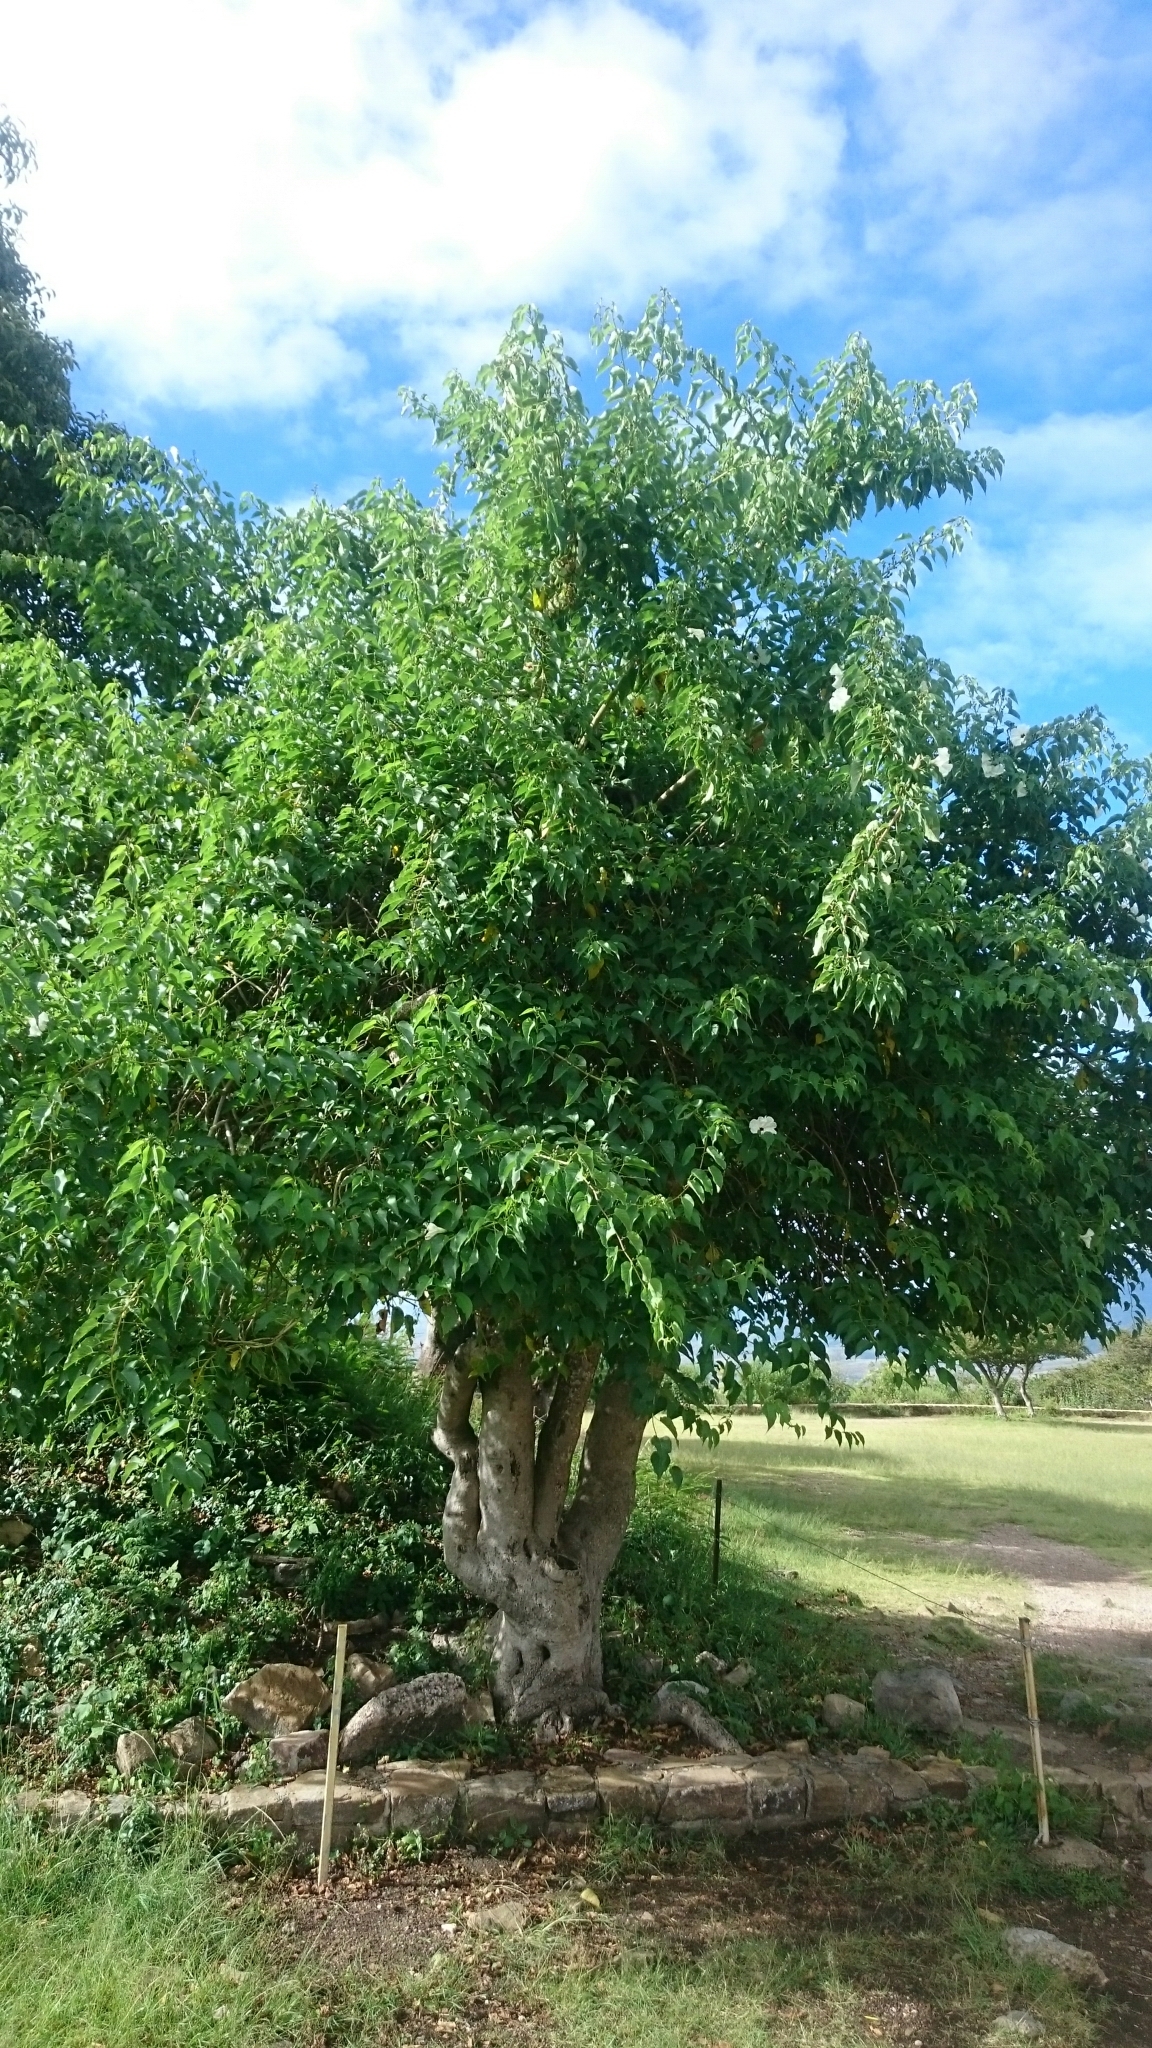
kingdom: Plantae
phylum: Tracheophyta
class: Magnoliopsida
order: Solanales
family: Convolvulaceae
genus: Ipomoea
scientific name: Ipomoea pauciflora
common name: Tree morningglory
